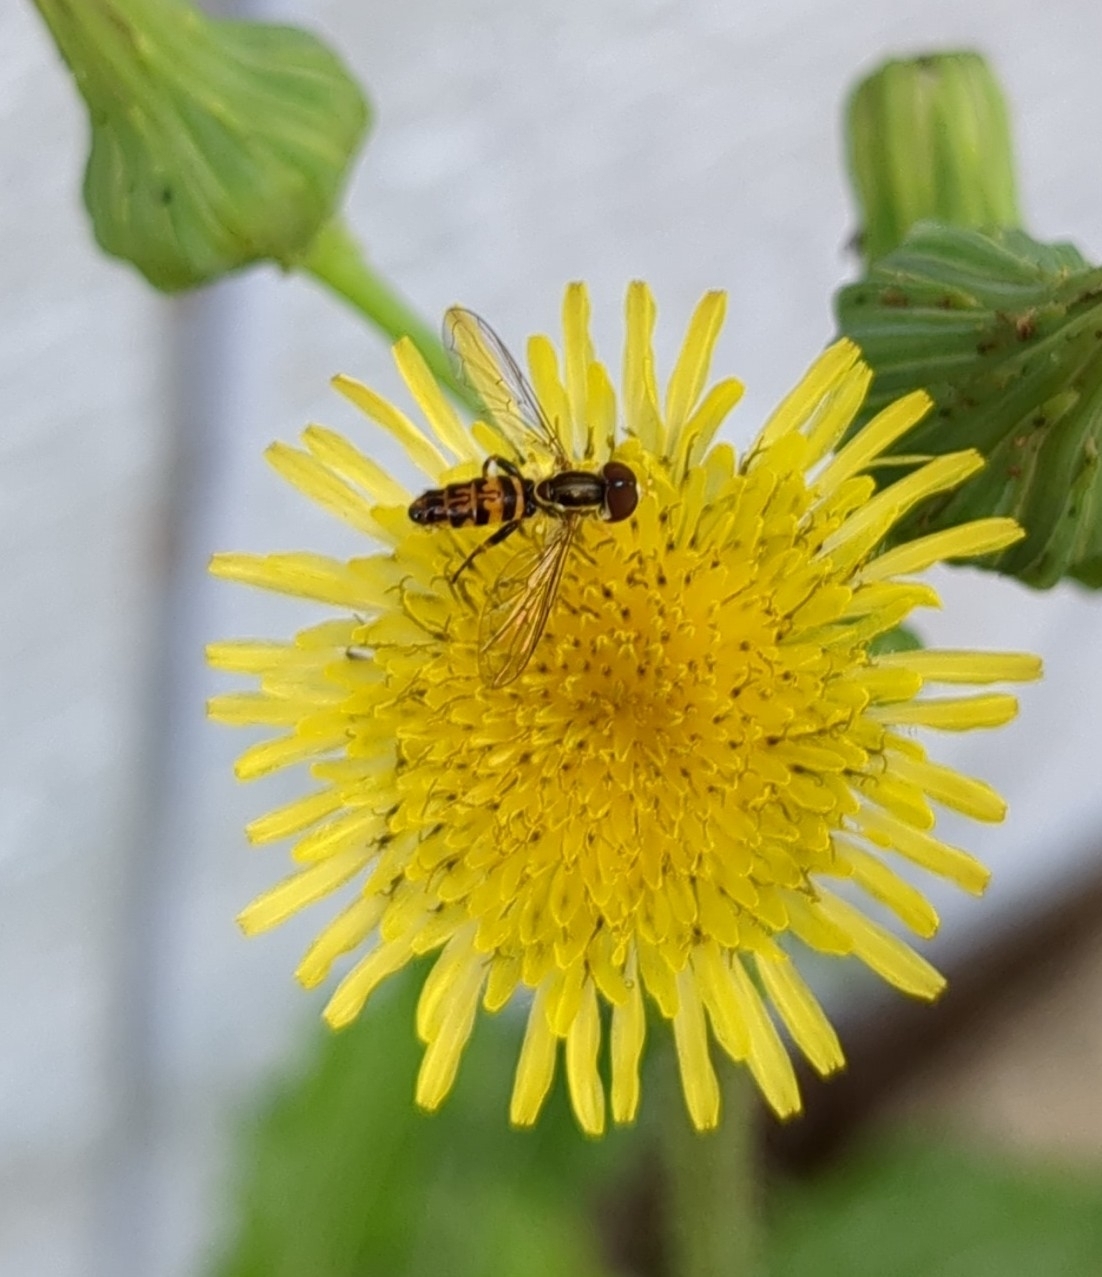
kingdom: Animalia
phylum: Arthropoda
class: Insecta
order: Diptera
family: Syrphidae
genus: Toxomerus
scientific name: Toxomerus geminatus
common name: Eastern calligrapher
